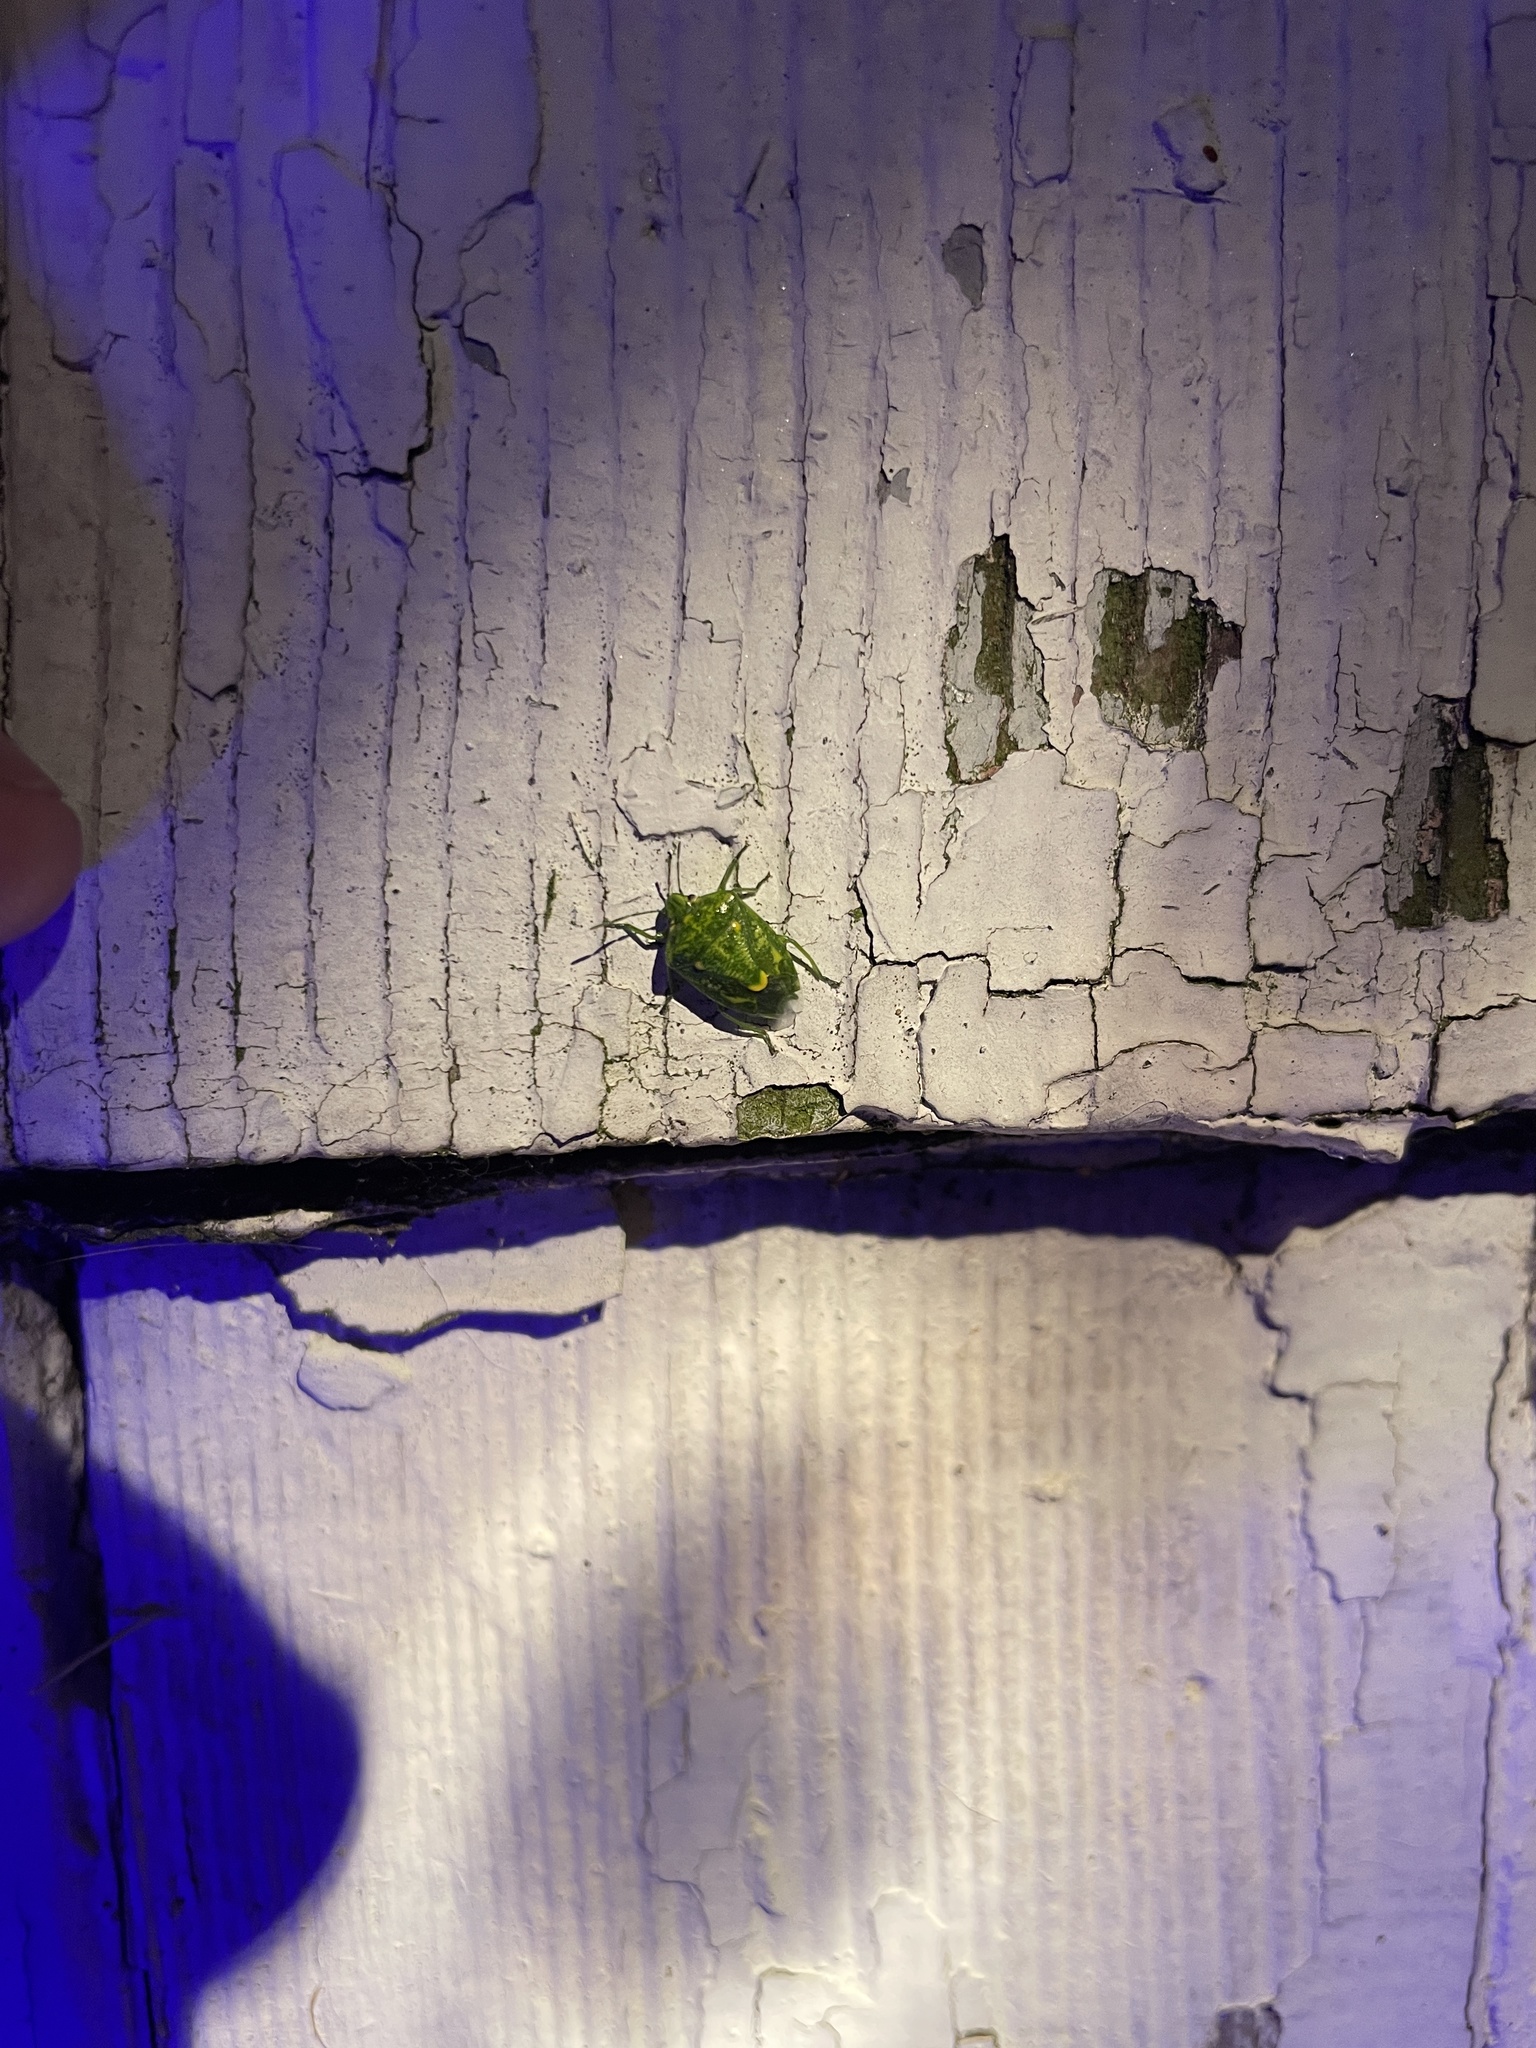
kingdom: Animalia
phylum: Arthropoda
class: Insecta
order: Hemiptera
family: Pentatomidae
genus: Banasa
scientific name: Banasa euchlora
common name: Cedar berry bug
